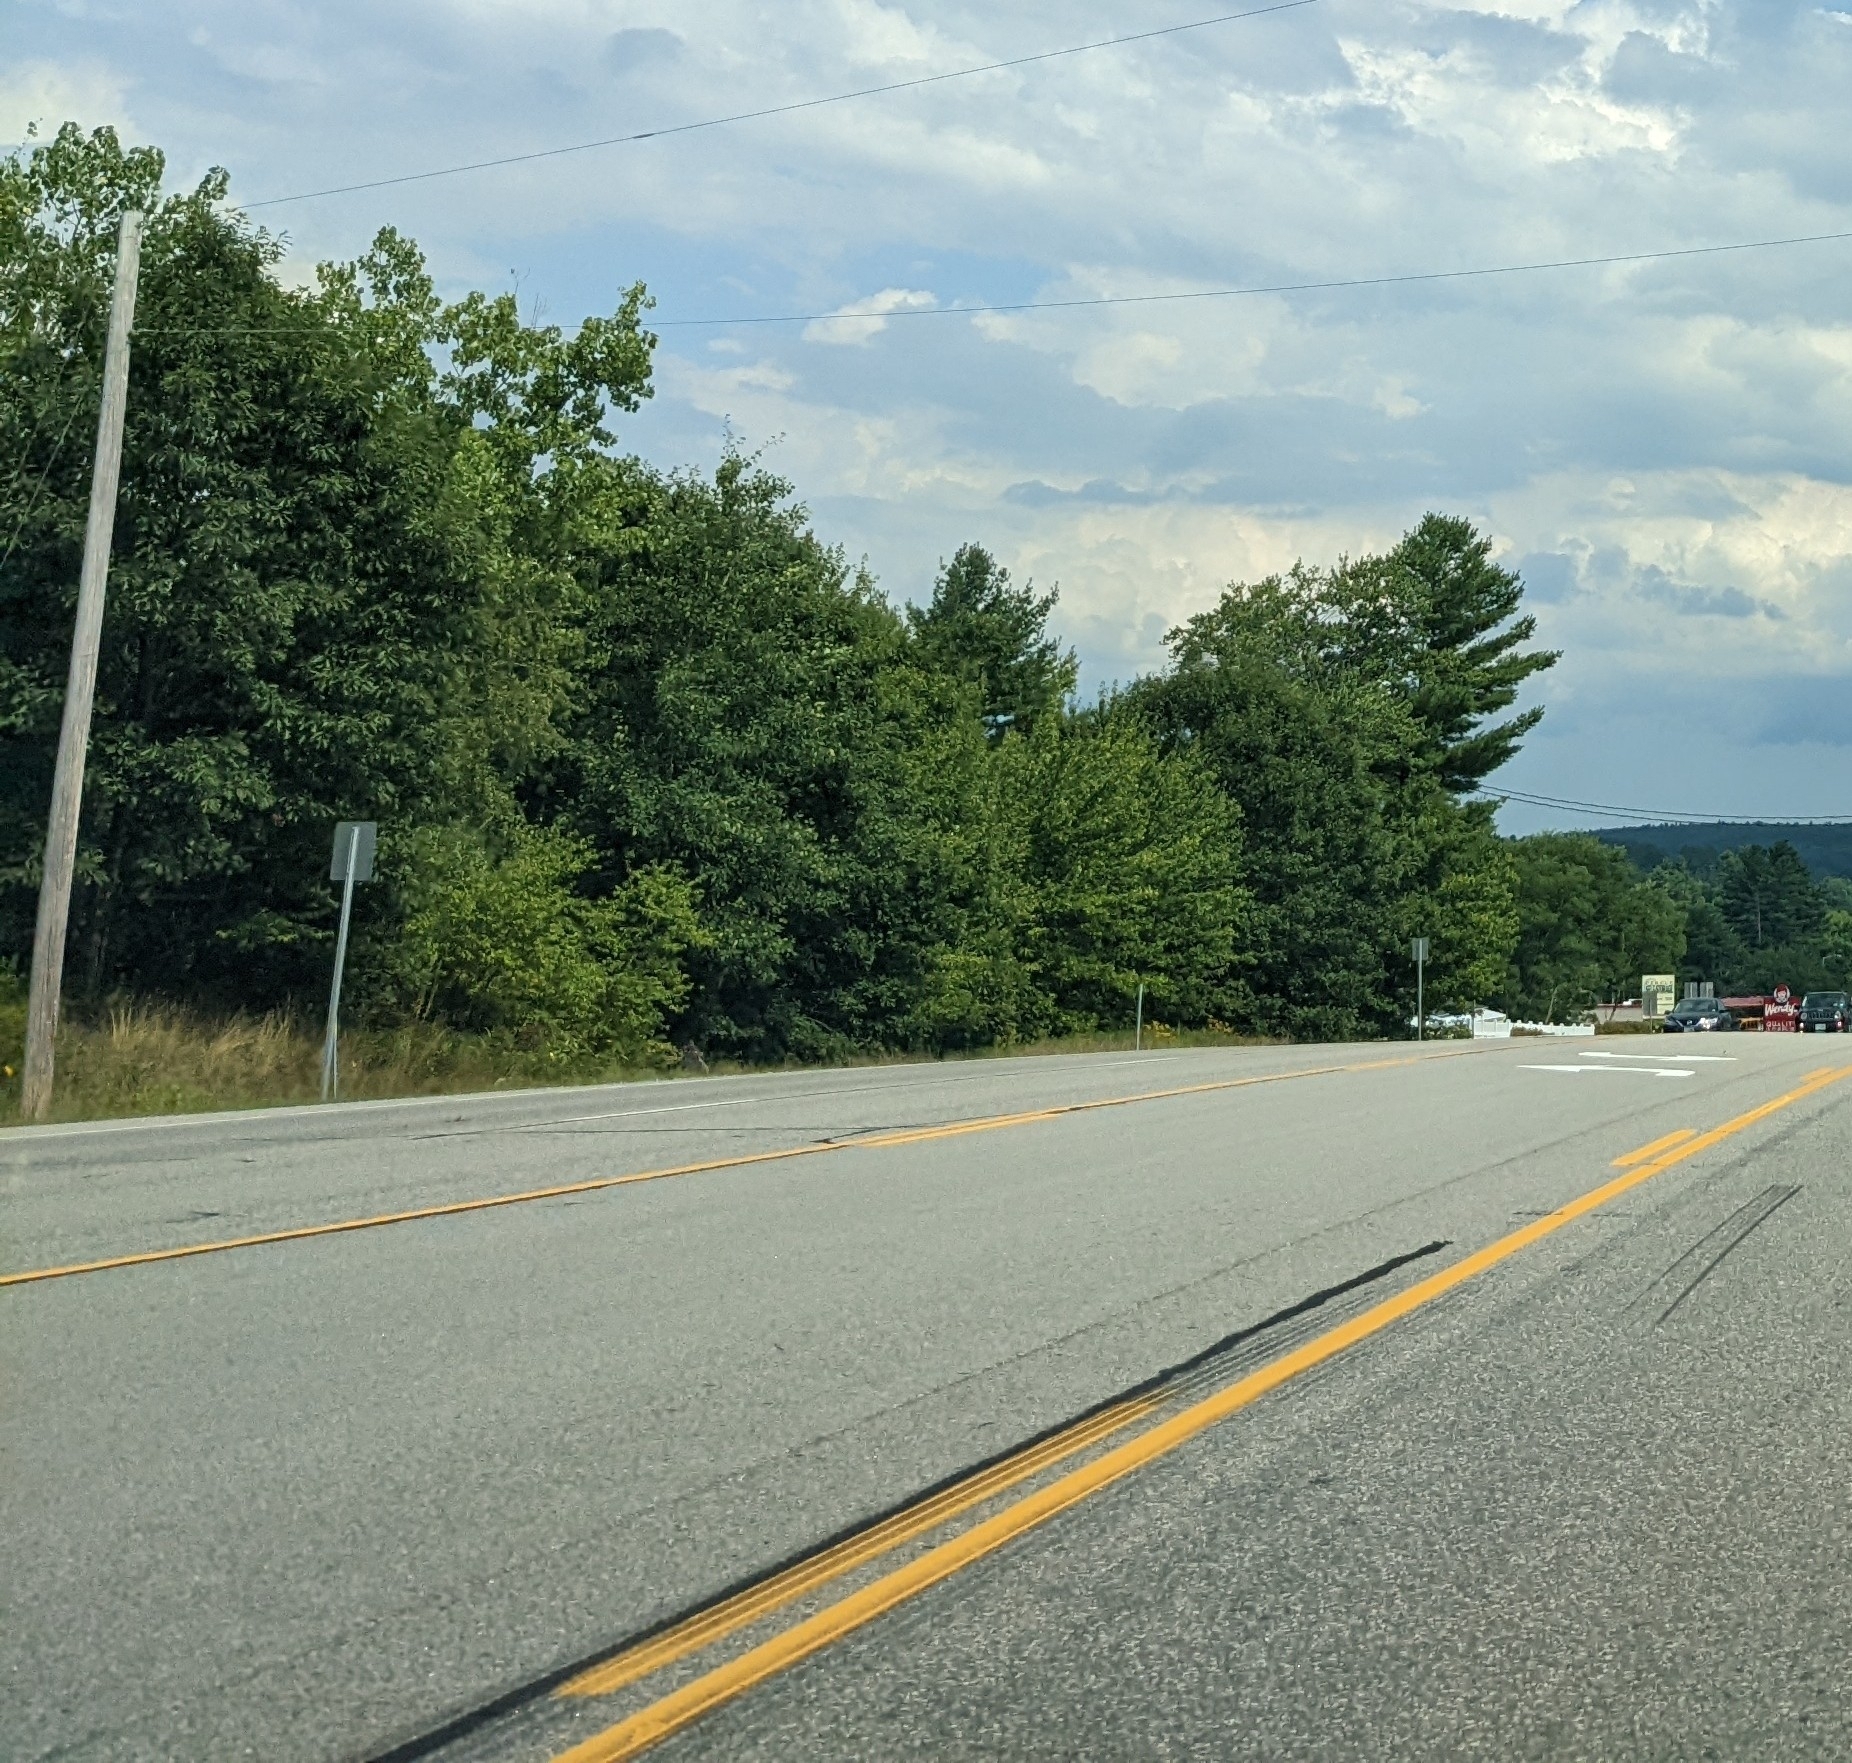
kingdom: Plantae
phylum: Tracheophyta
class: Pinopsida
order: Pinales
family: Pinaceae
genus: Pinus
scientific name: Pinus strobus
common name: Weymouth pine
